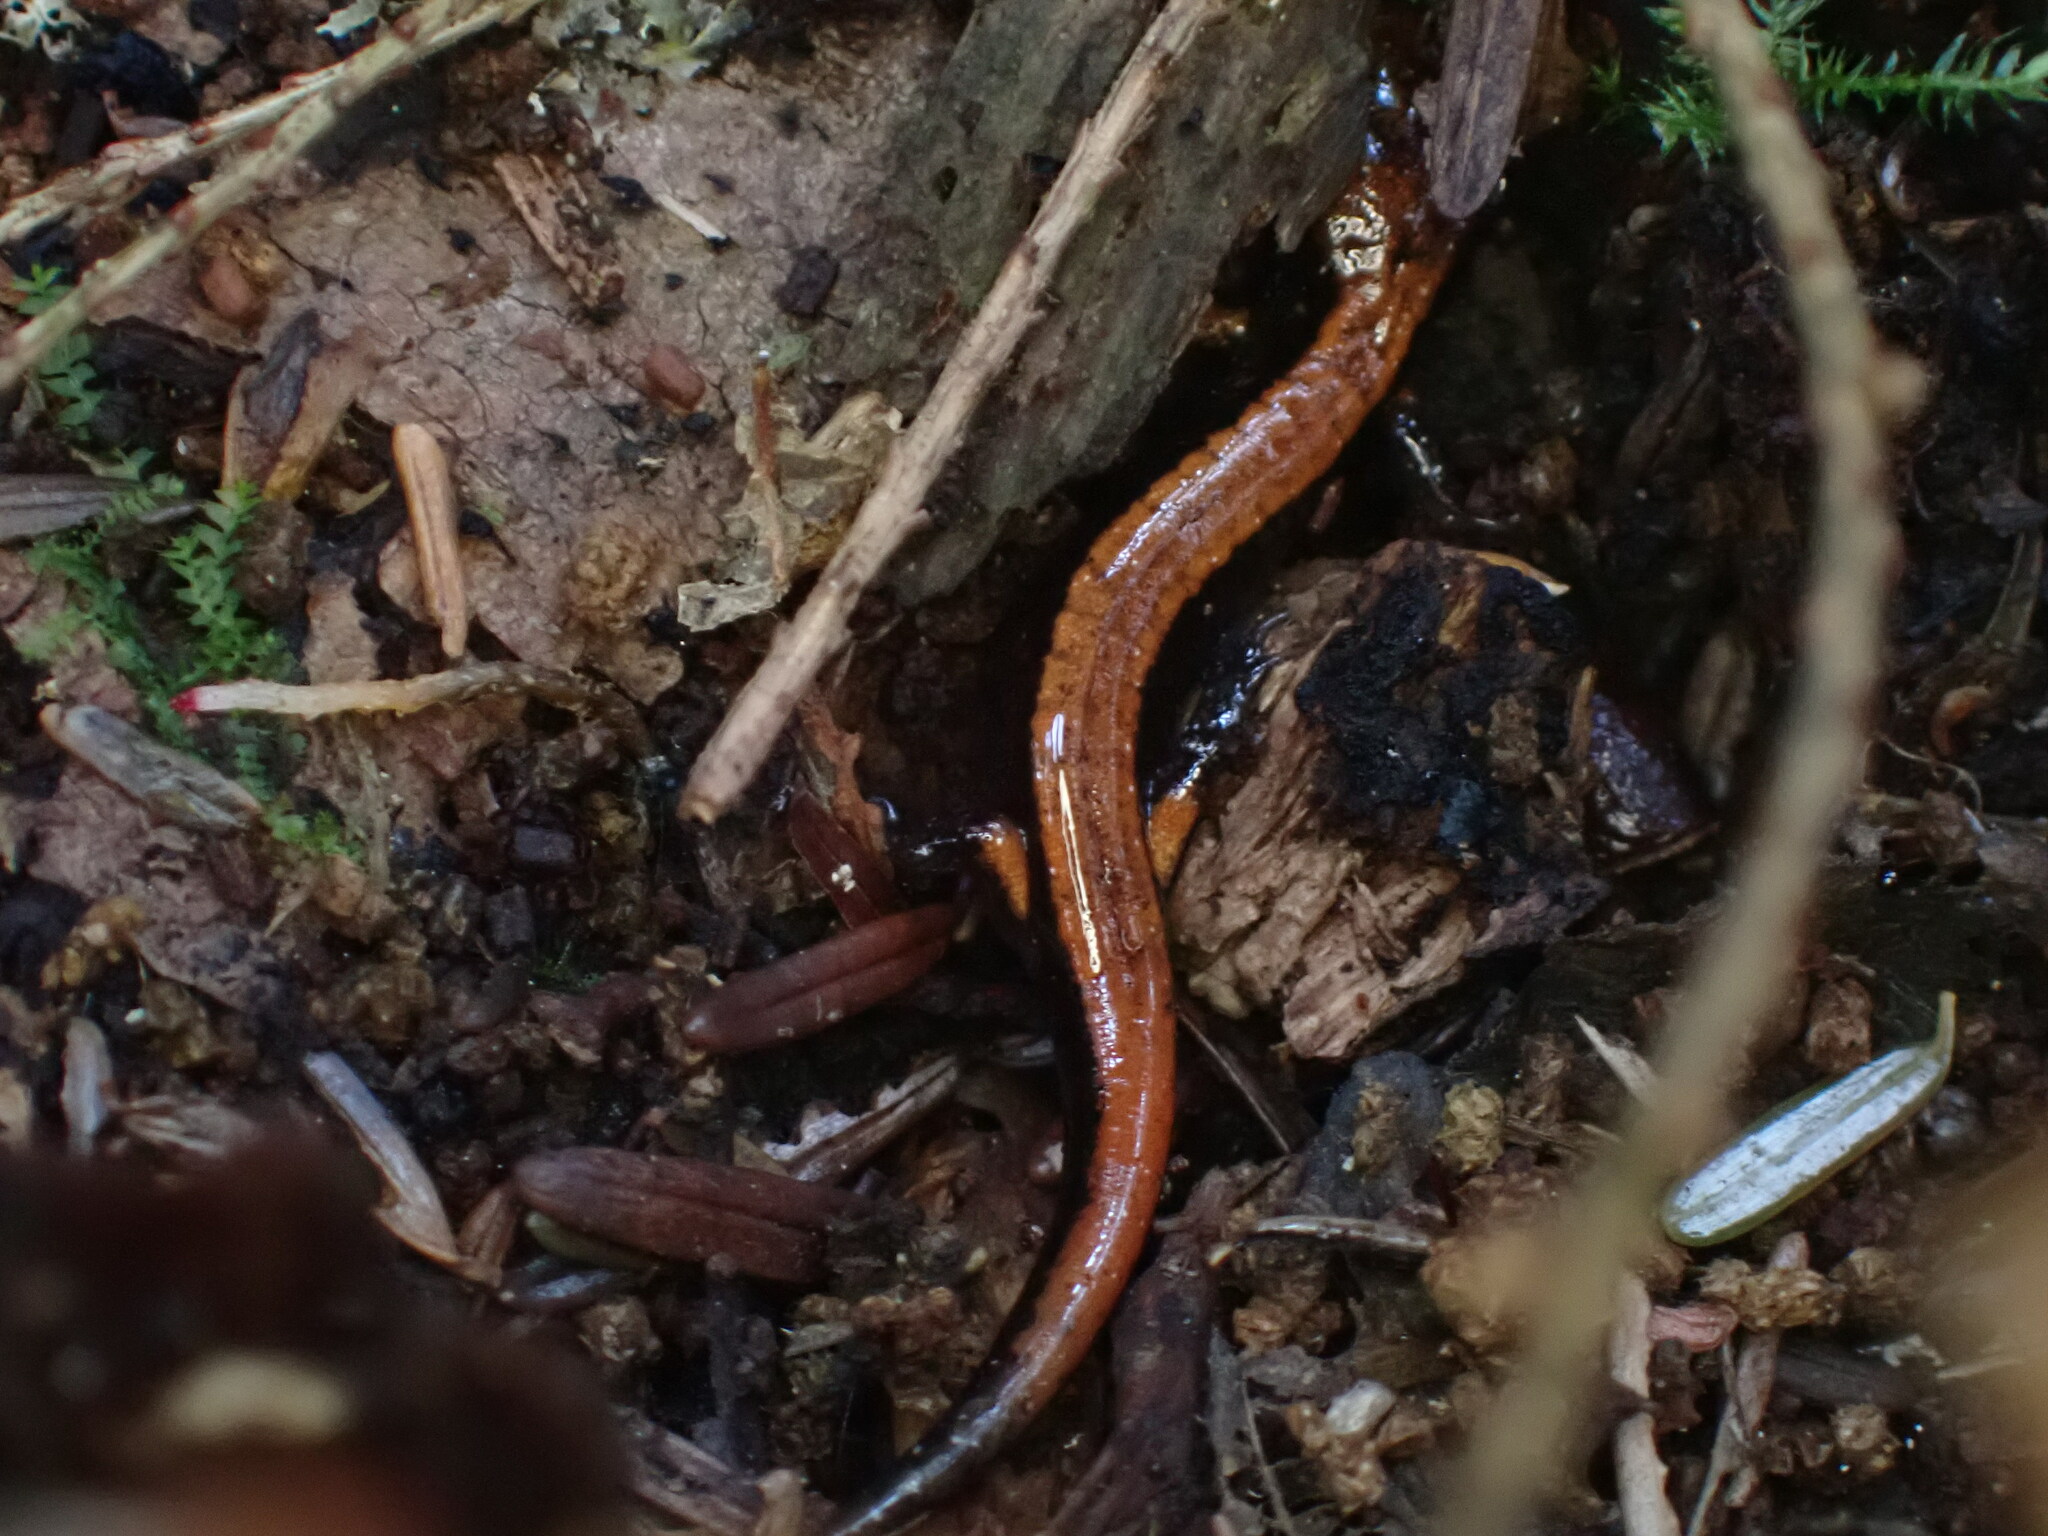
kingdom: Animalia
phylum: Chordata
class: Amphibia
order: Caudata
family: Plethodontidae
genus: Plethodon
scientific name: Plethodon vehiculum
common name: Western red-backed salamander
